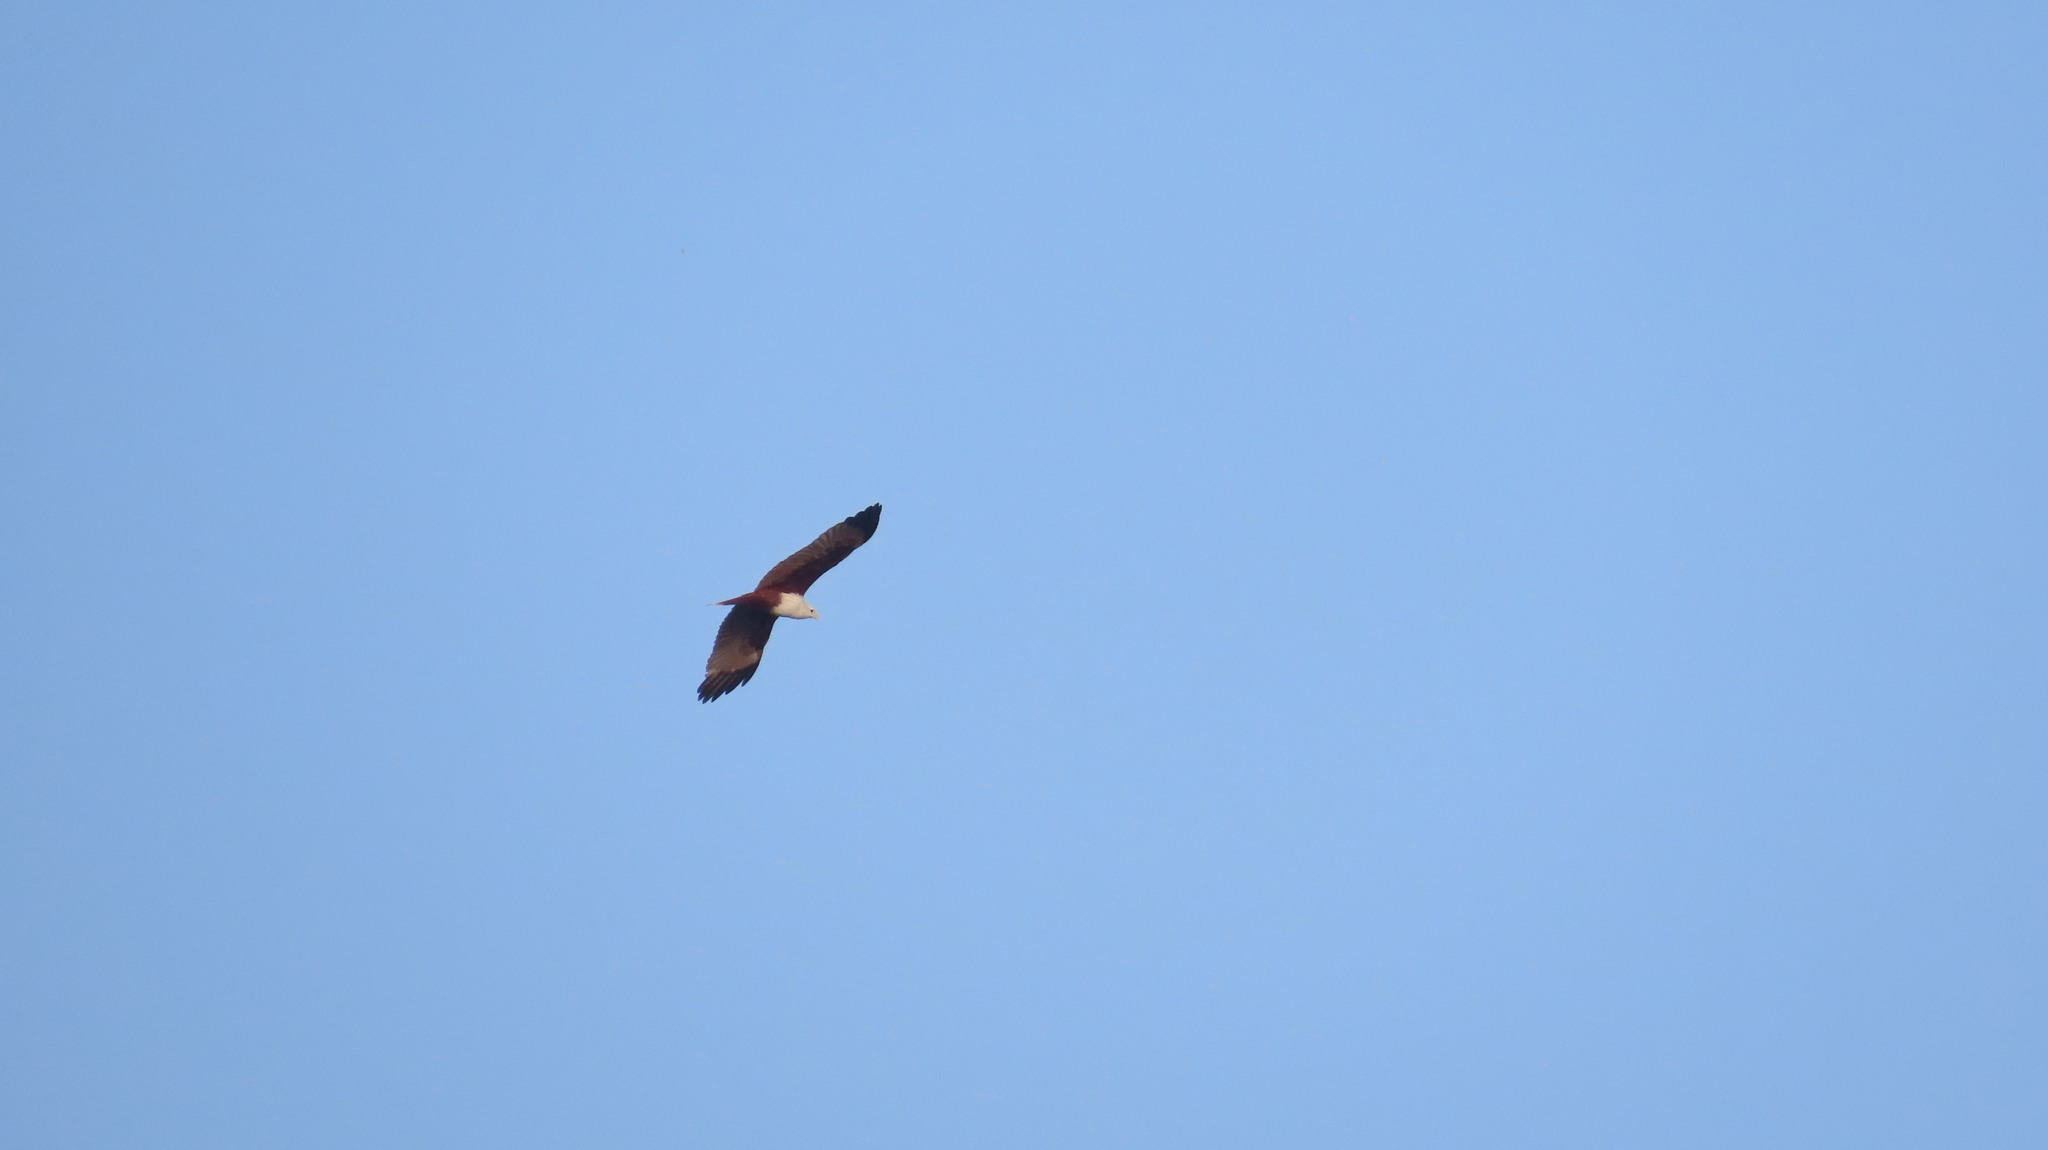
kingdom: Animalia
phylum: Chordata
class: Aves
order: Accipitriformes
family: Accipitridae
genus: Haliastur
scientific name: Haliastur indus
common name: Brahminy kite
